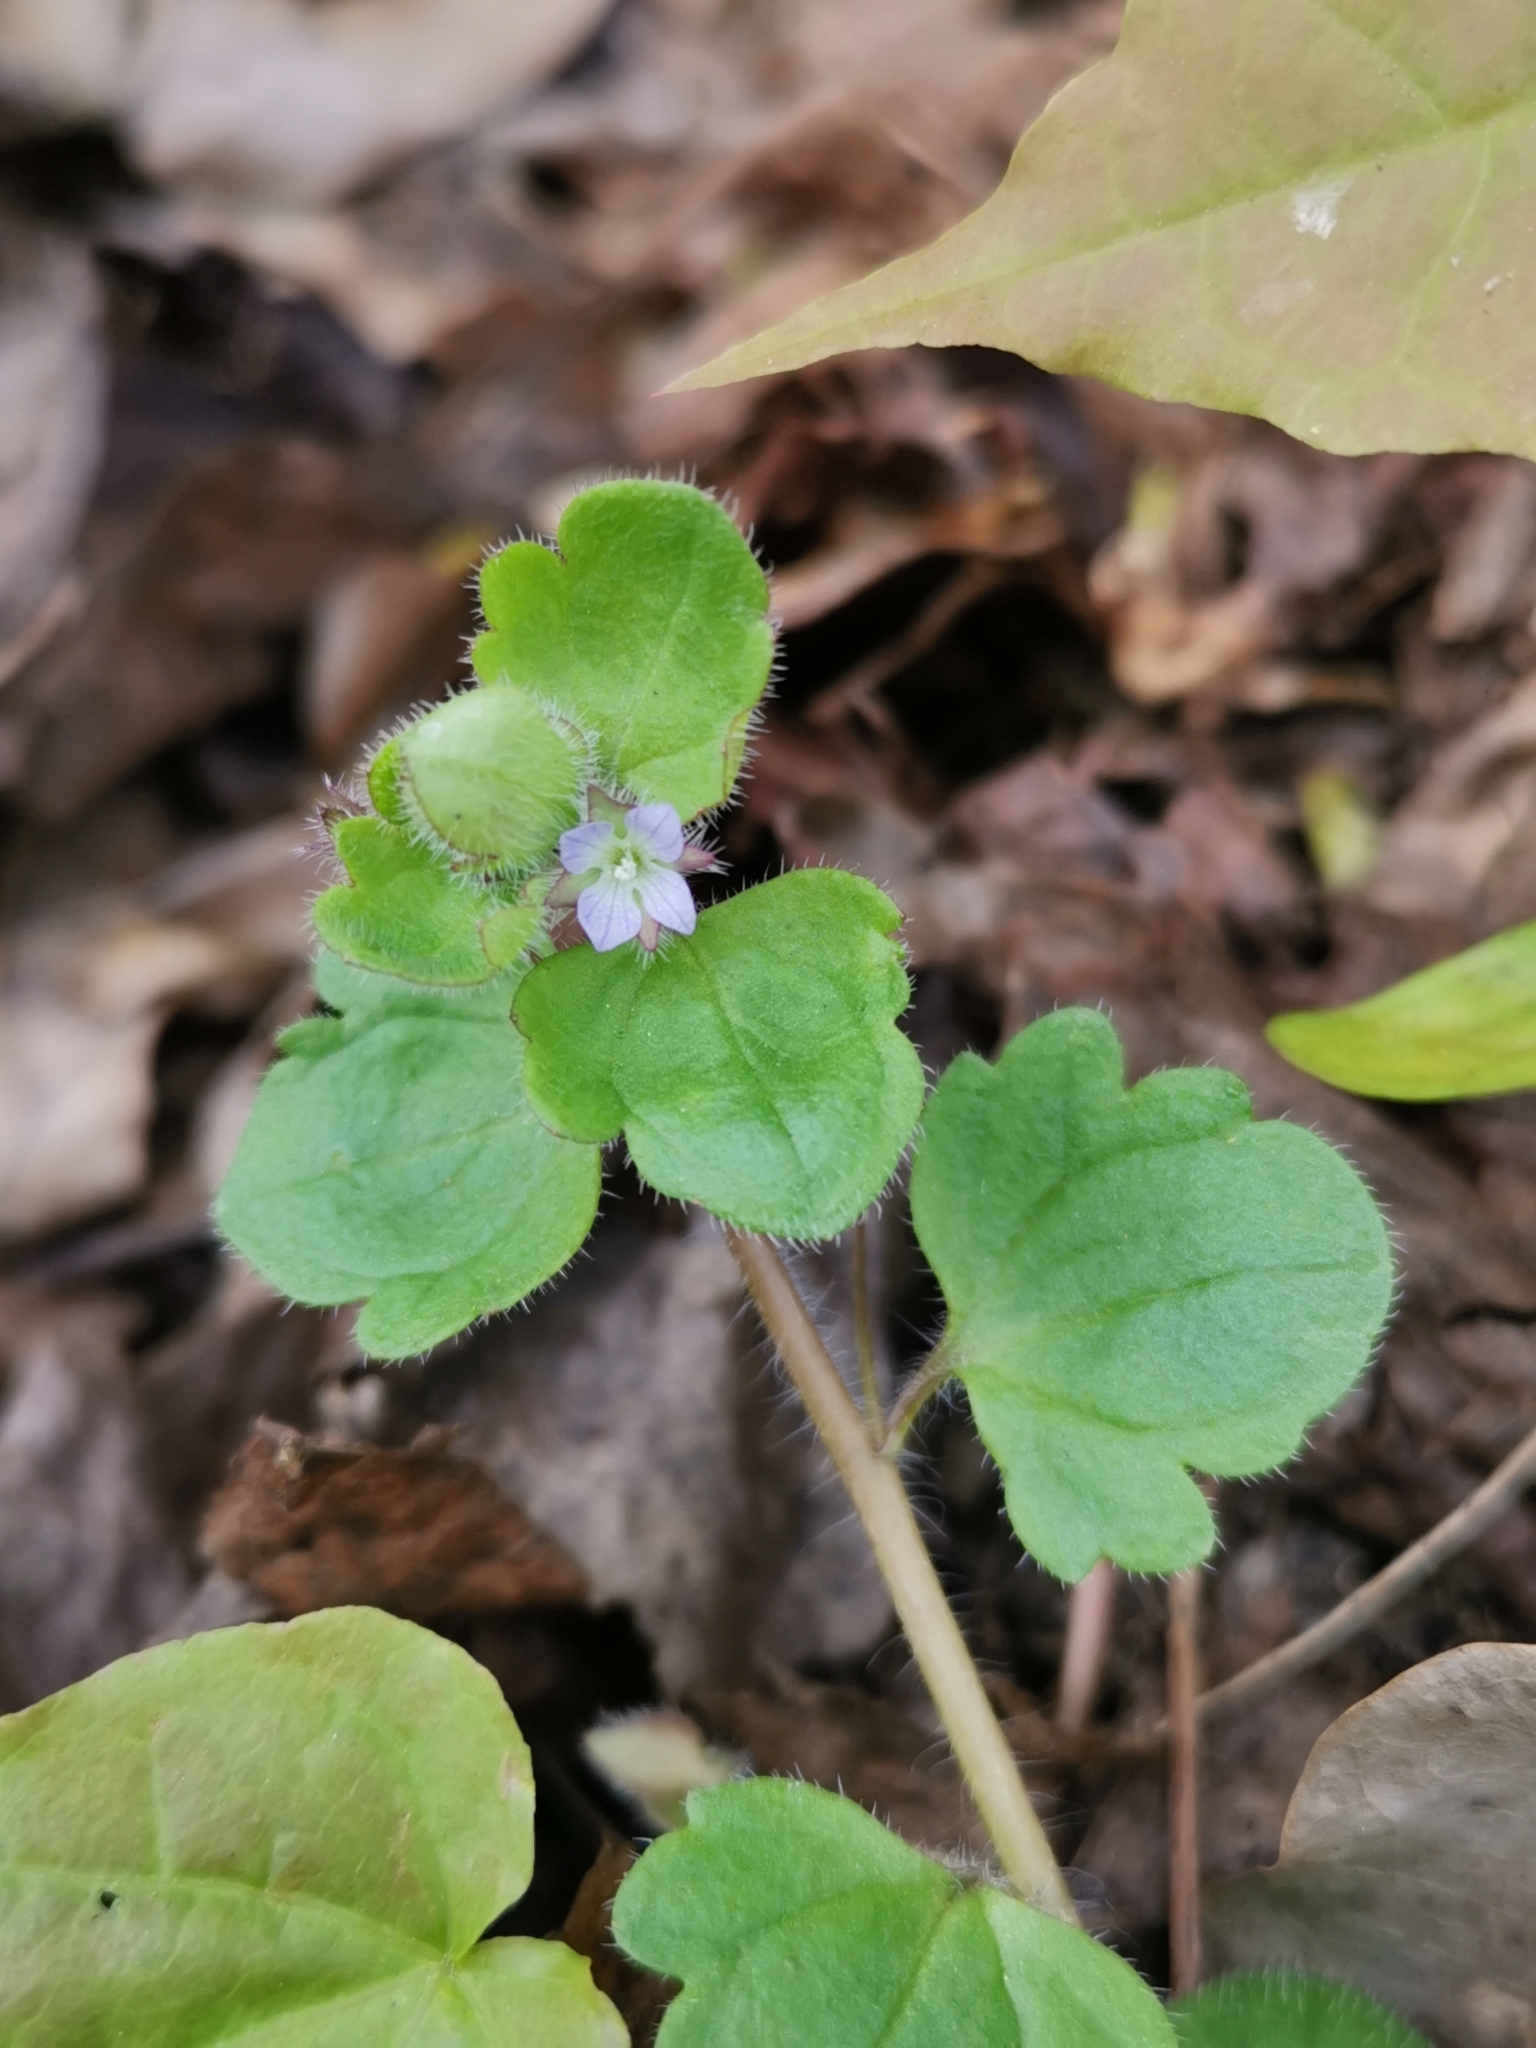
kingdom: Plantae
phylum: Tracheophyta
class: Magnoliopsida
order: Lamiales
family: Plantaginaceae
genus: Veronica
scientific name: Veronica sublobata
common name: False ivy-leaved speedwell
